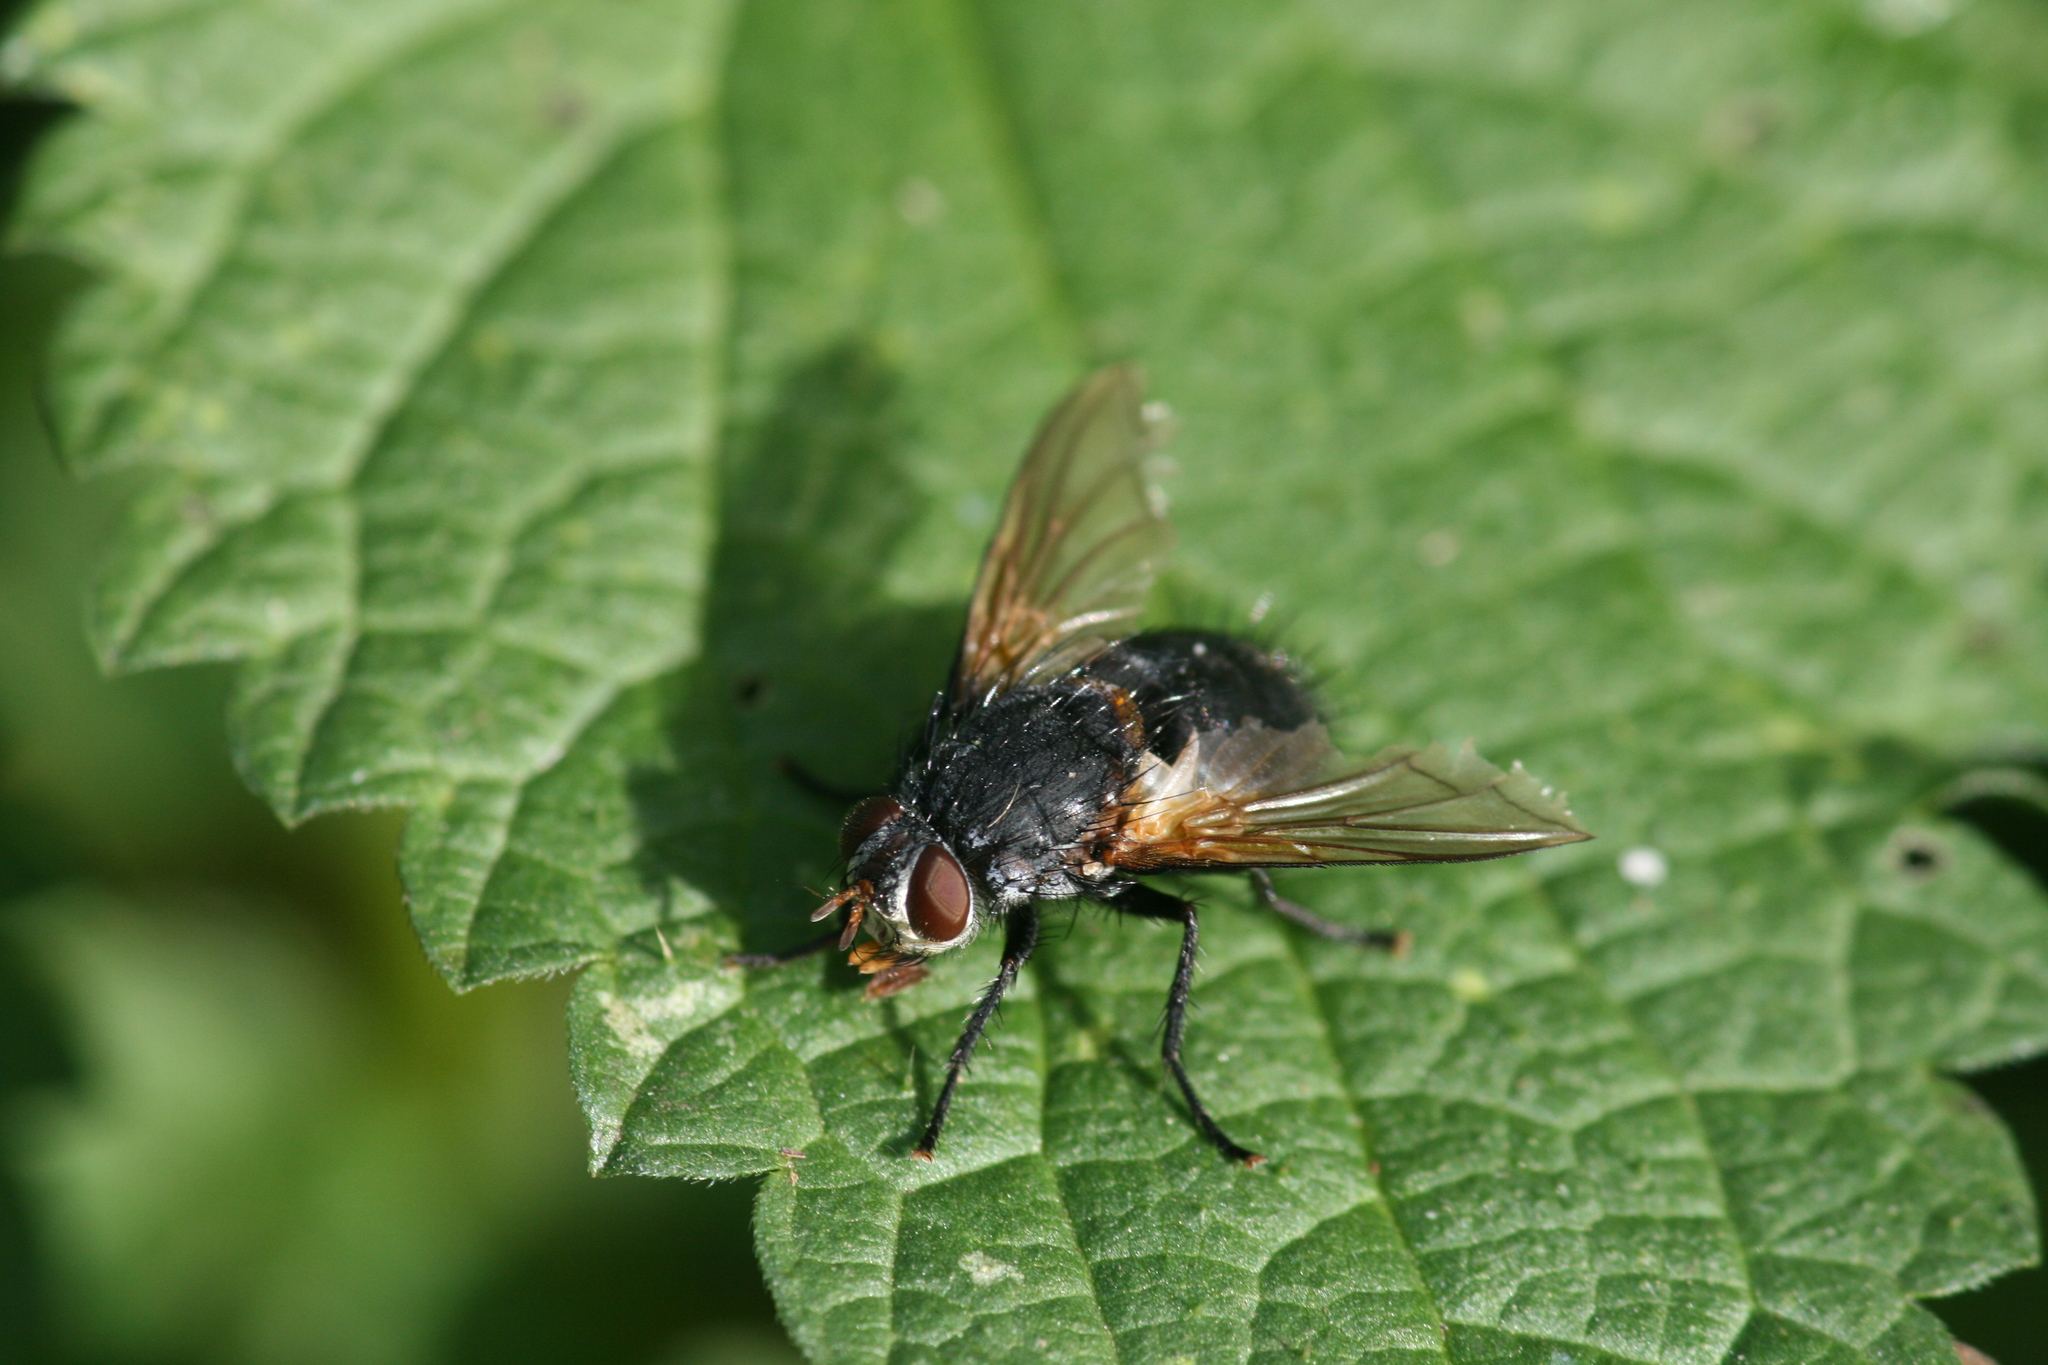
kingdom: Animalia
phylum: Arthropoda
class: Insecta
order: Diptera
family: Tachinidae
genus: Nemoraea
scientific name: Nemoraea pellucida
